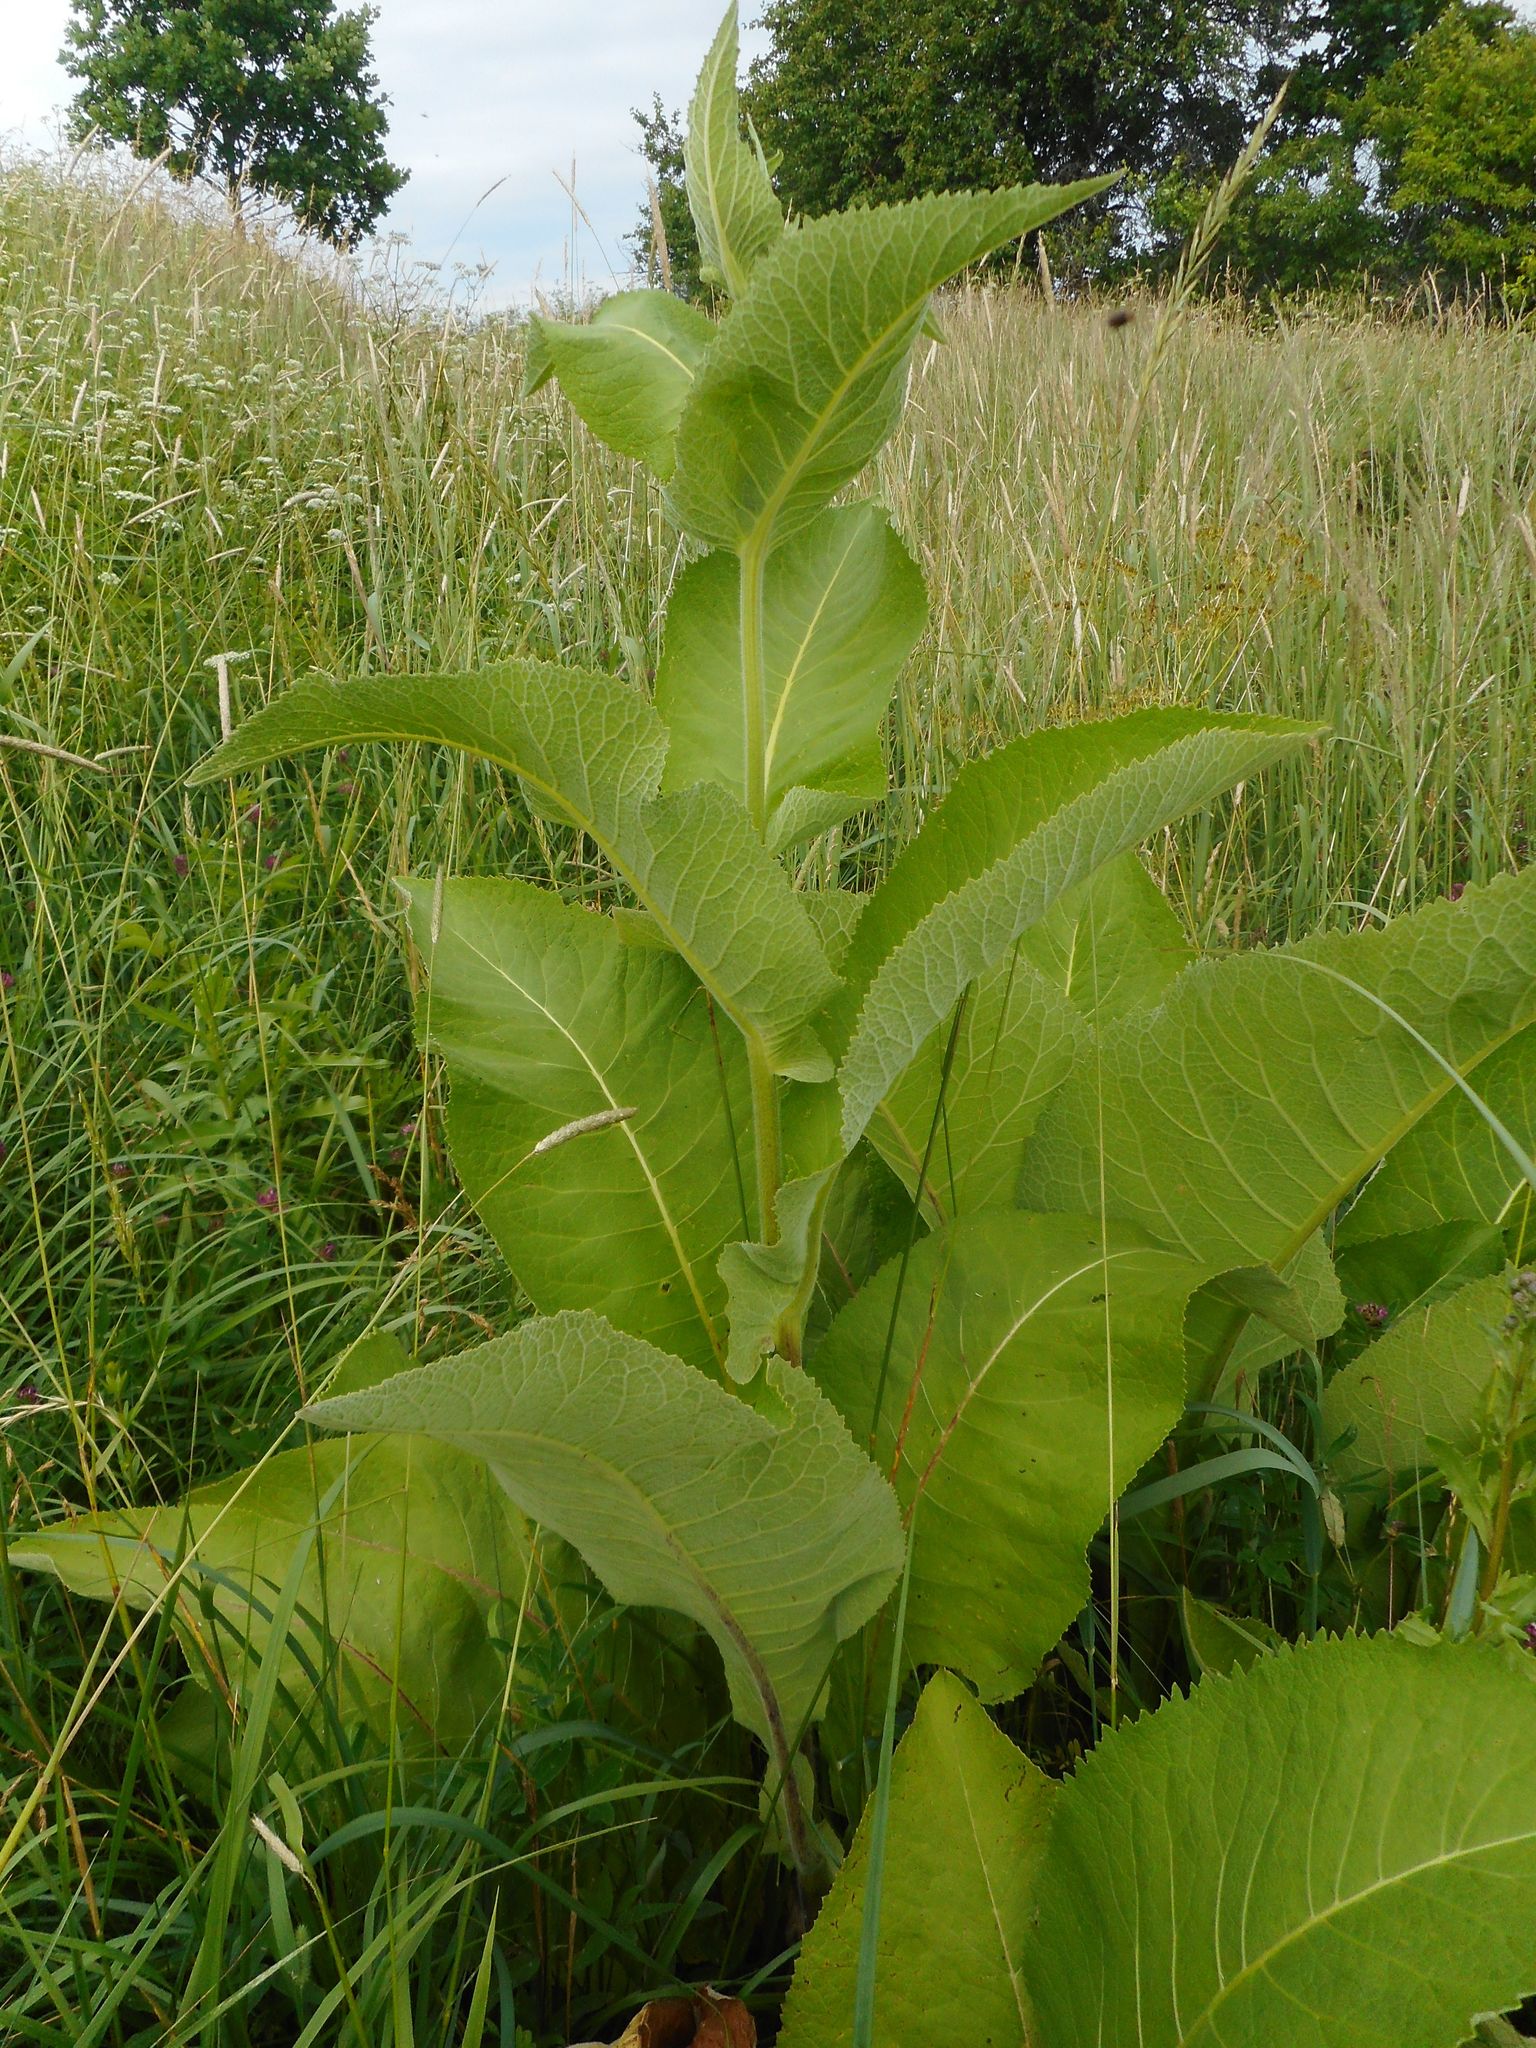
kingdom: Plantae
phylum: Tracheophyta
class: Magnoliopsida
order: Asterales
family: Asteraceae
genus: Inula
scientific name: Inula helenium
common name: Elecampane
